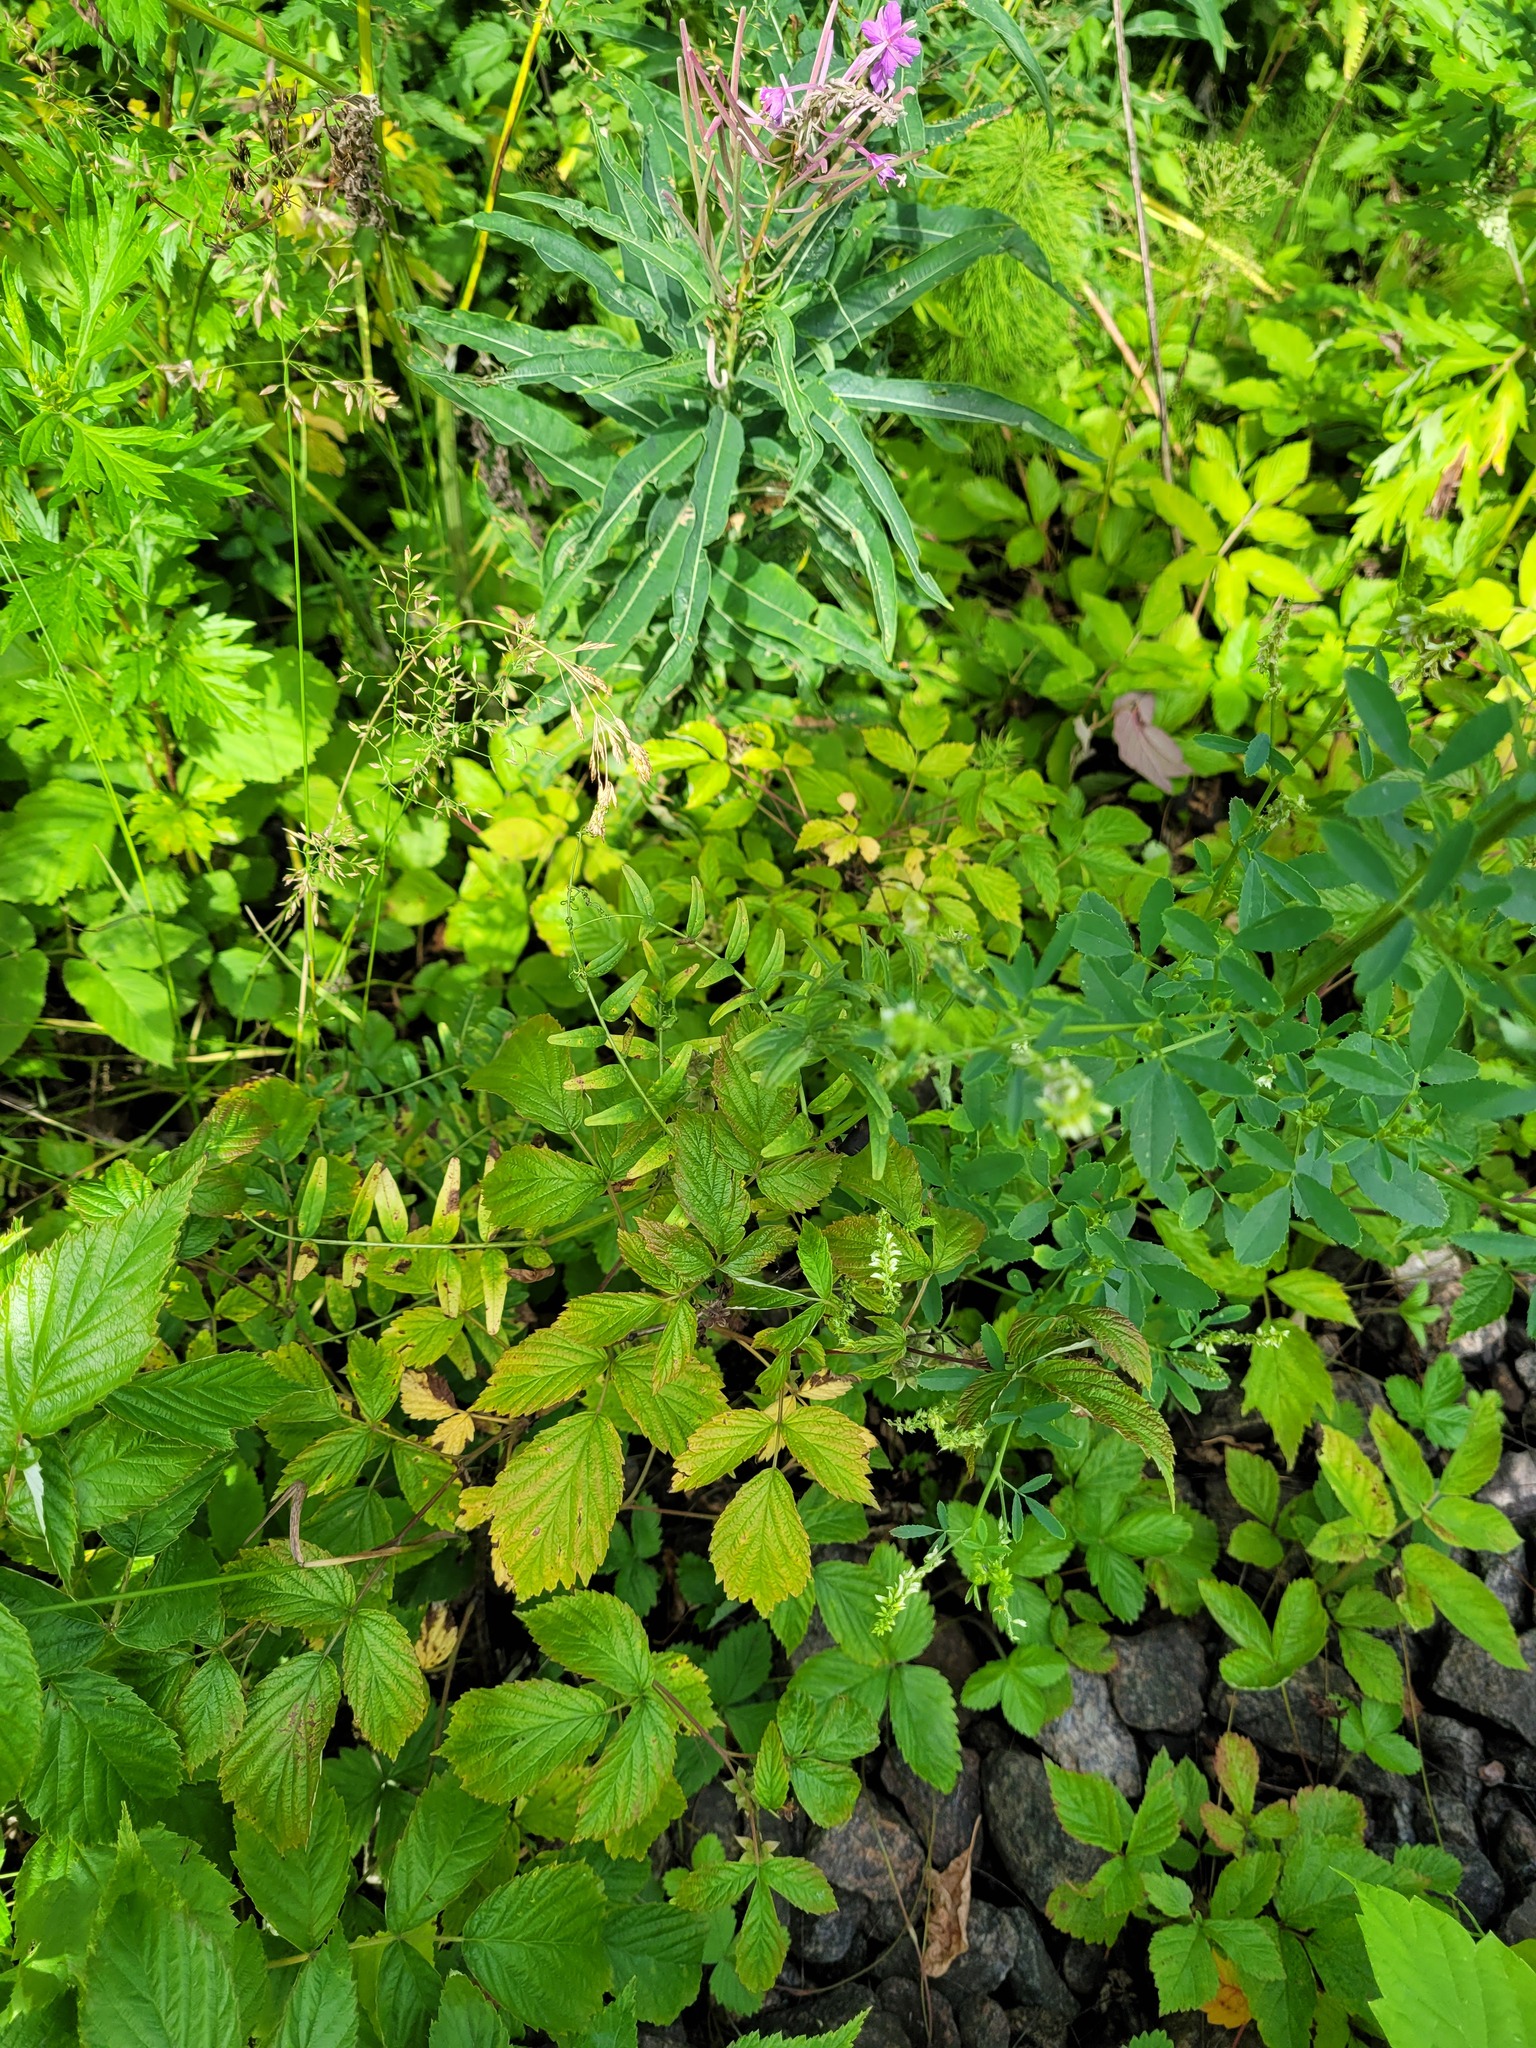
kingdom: Plantae
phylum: Tracheophyta
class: Magnoliopsida
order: Fabales
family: Fabaceae
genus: Vicia
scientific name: Vicia sepium
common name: Bush vetch
